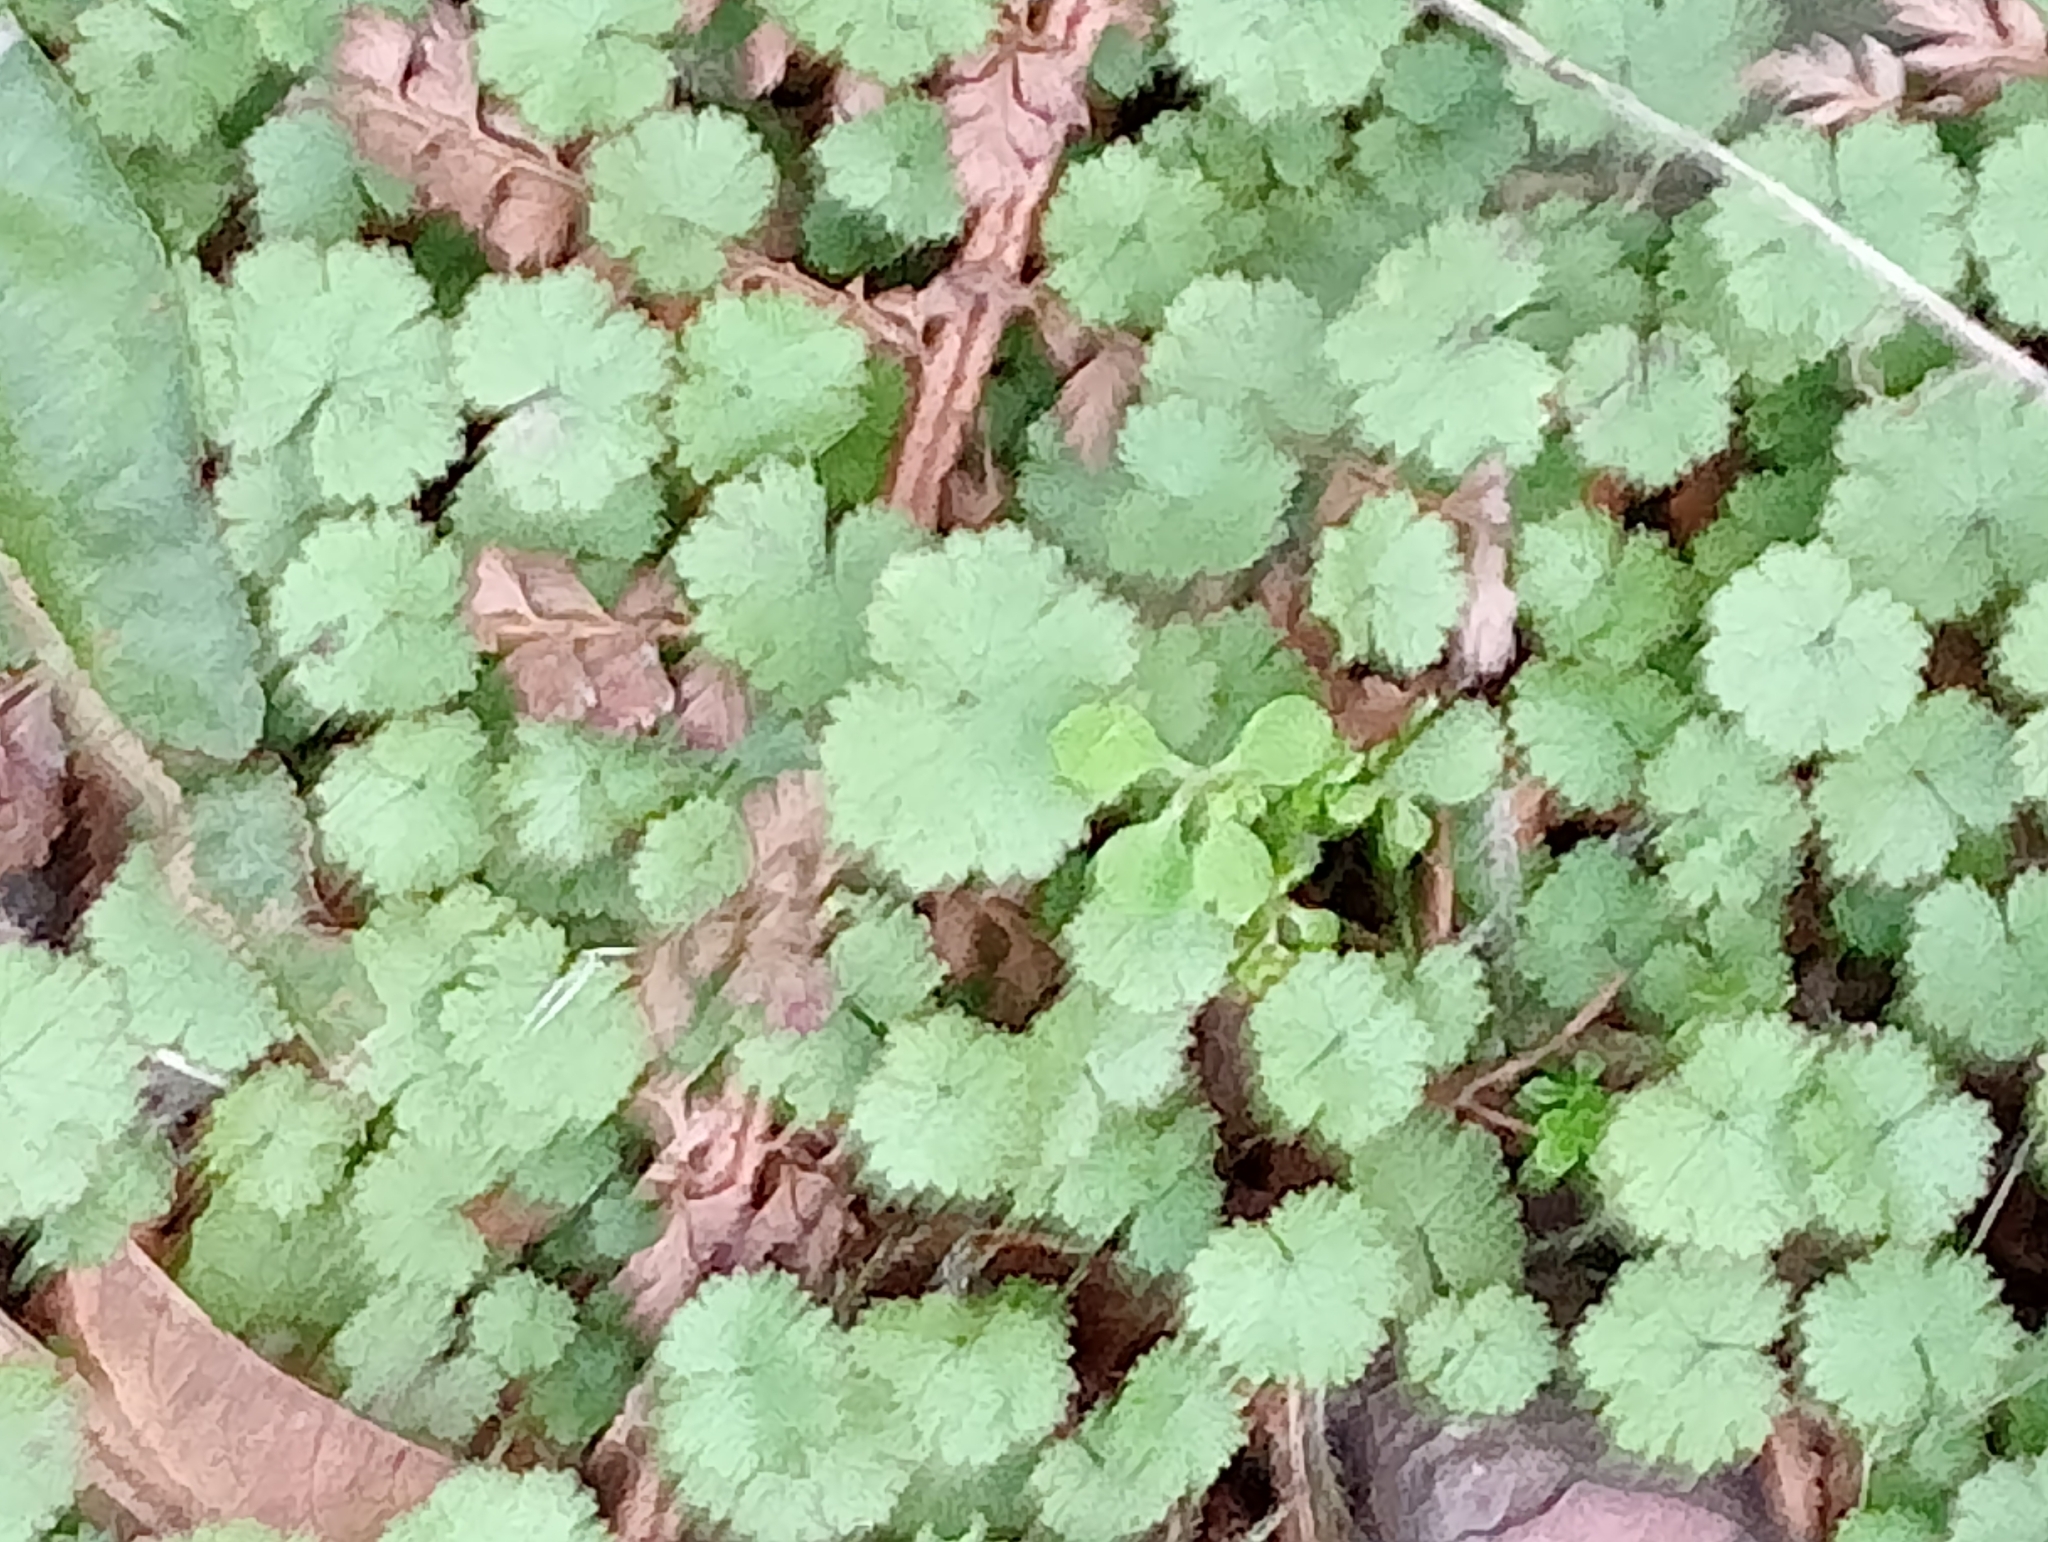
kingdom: Plantae
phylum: Tracheophyta
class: Magnoliopsida
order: Apiales
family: Araliaceae
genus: Hydrocotyle
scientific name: Hydrocotyle moschata
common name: Hairy pennywort
